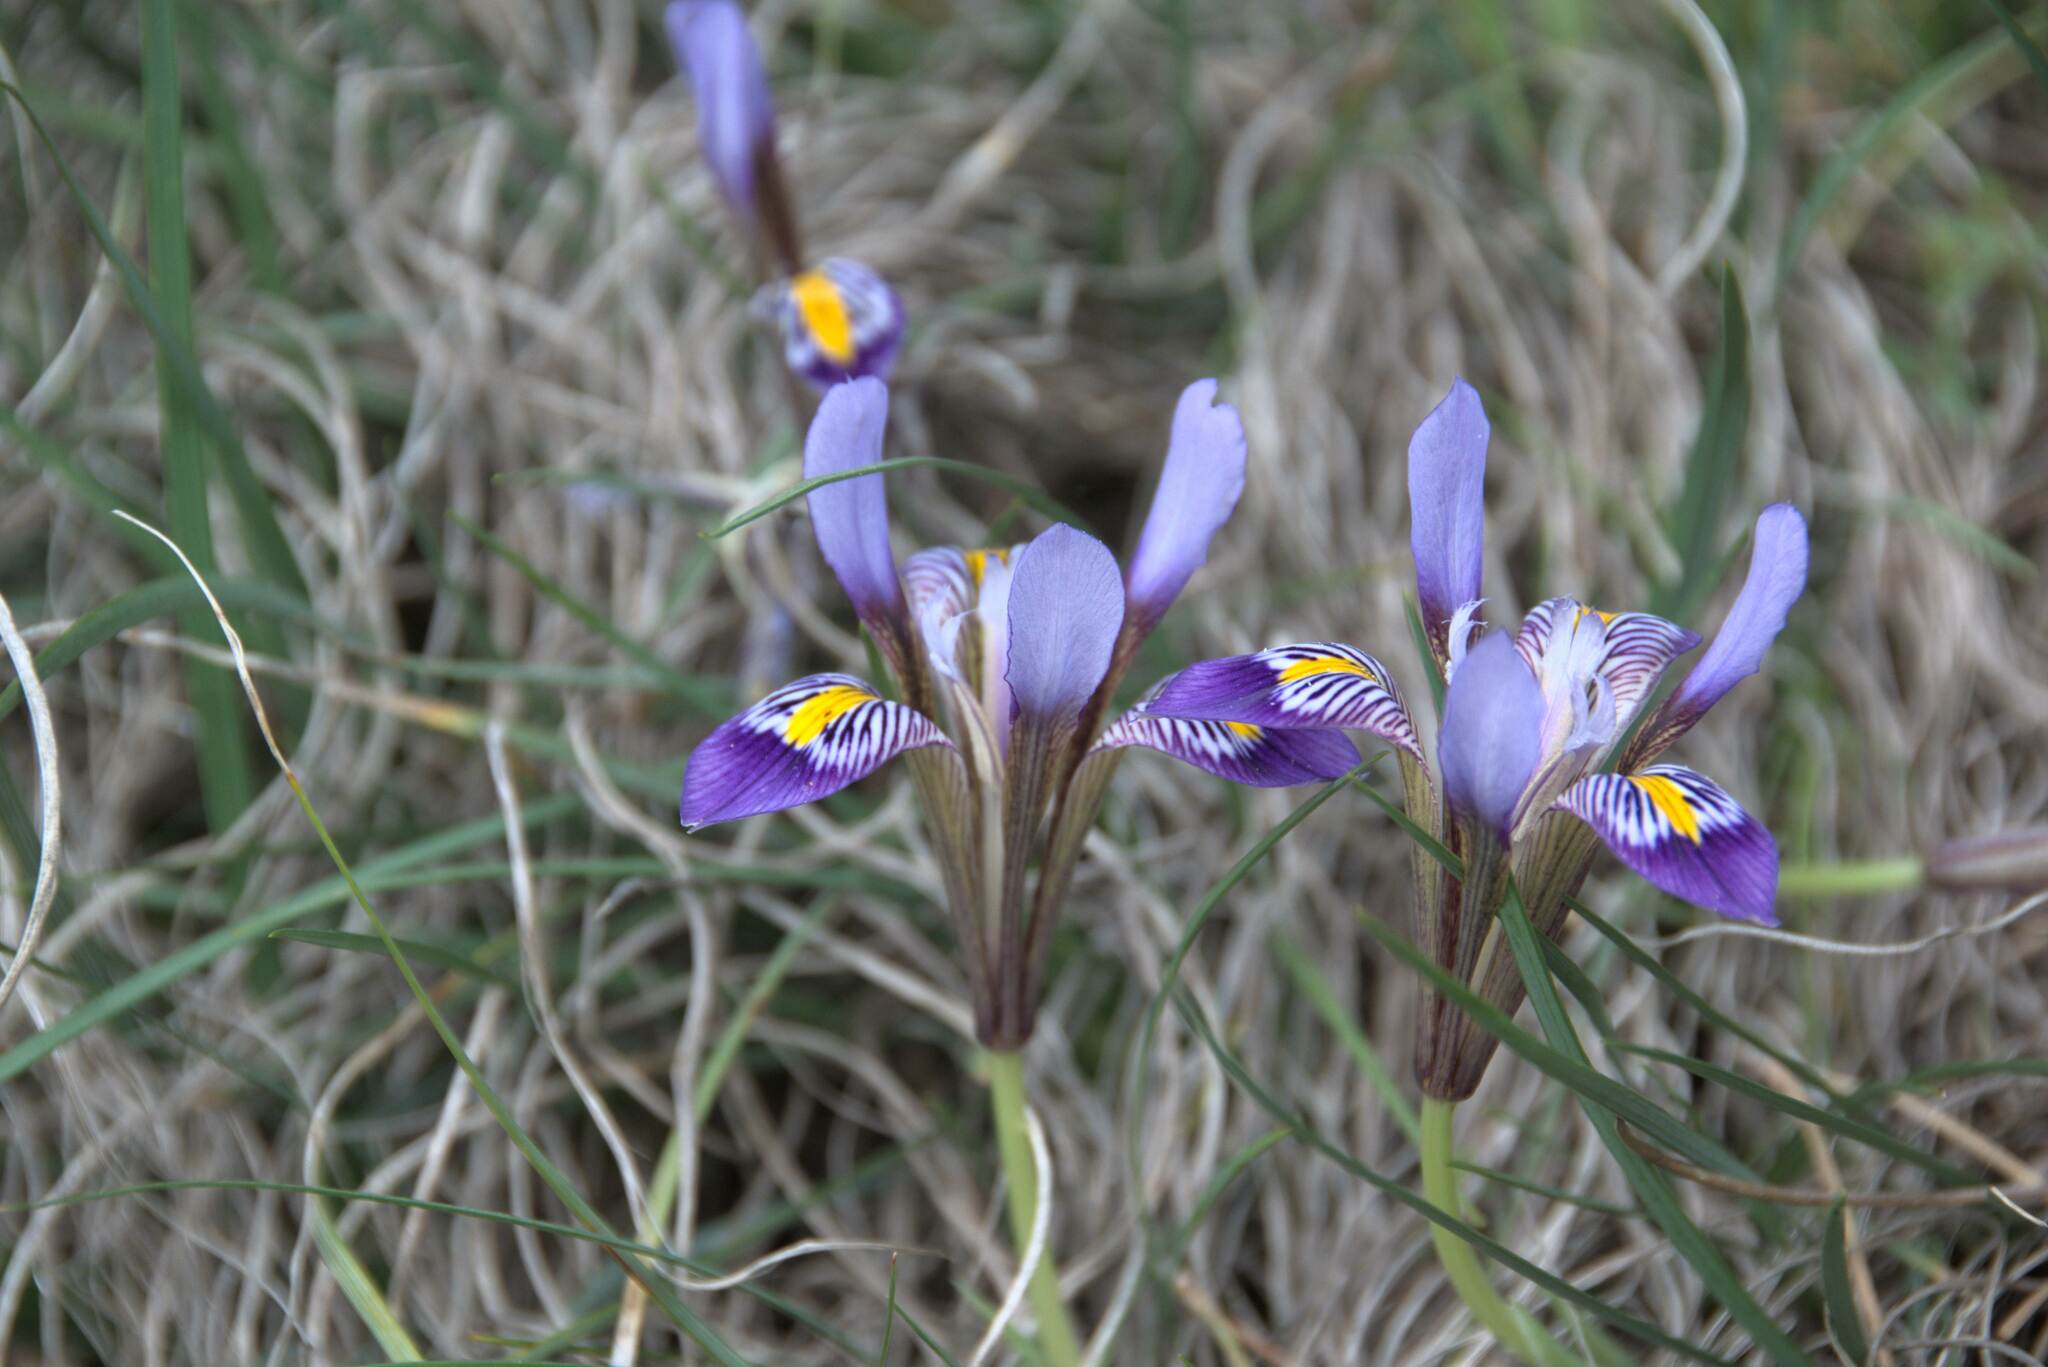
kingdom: Plantae
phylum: Tracheophyta
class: Liliopsida
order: Asparagales
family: Iridaceae
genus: Iris
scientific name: Iris unguicularis
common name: Algerian iris
